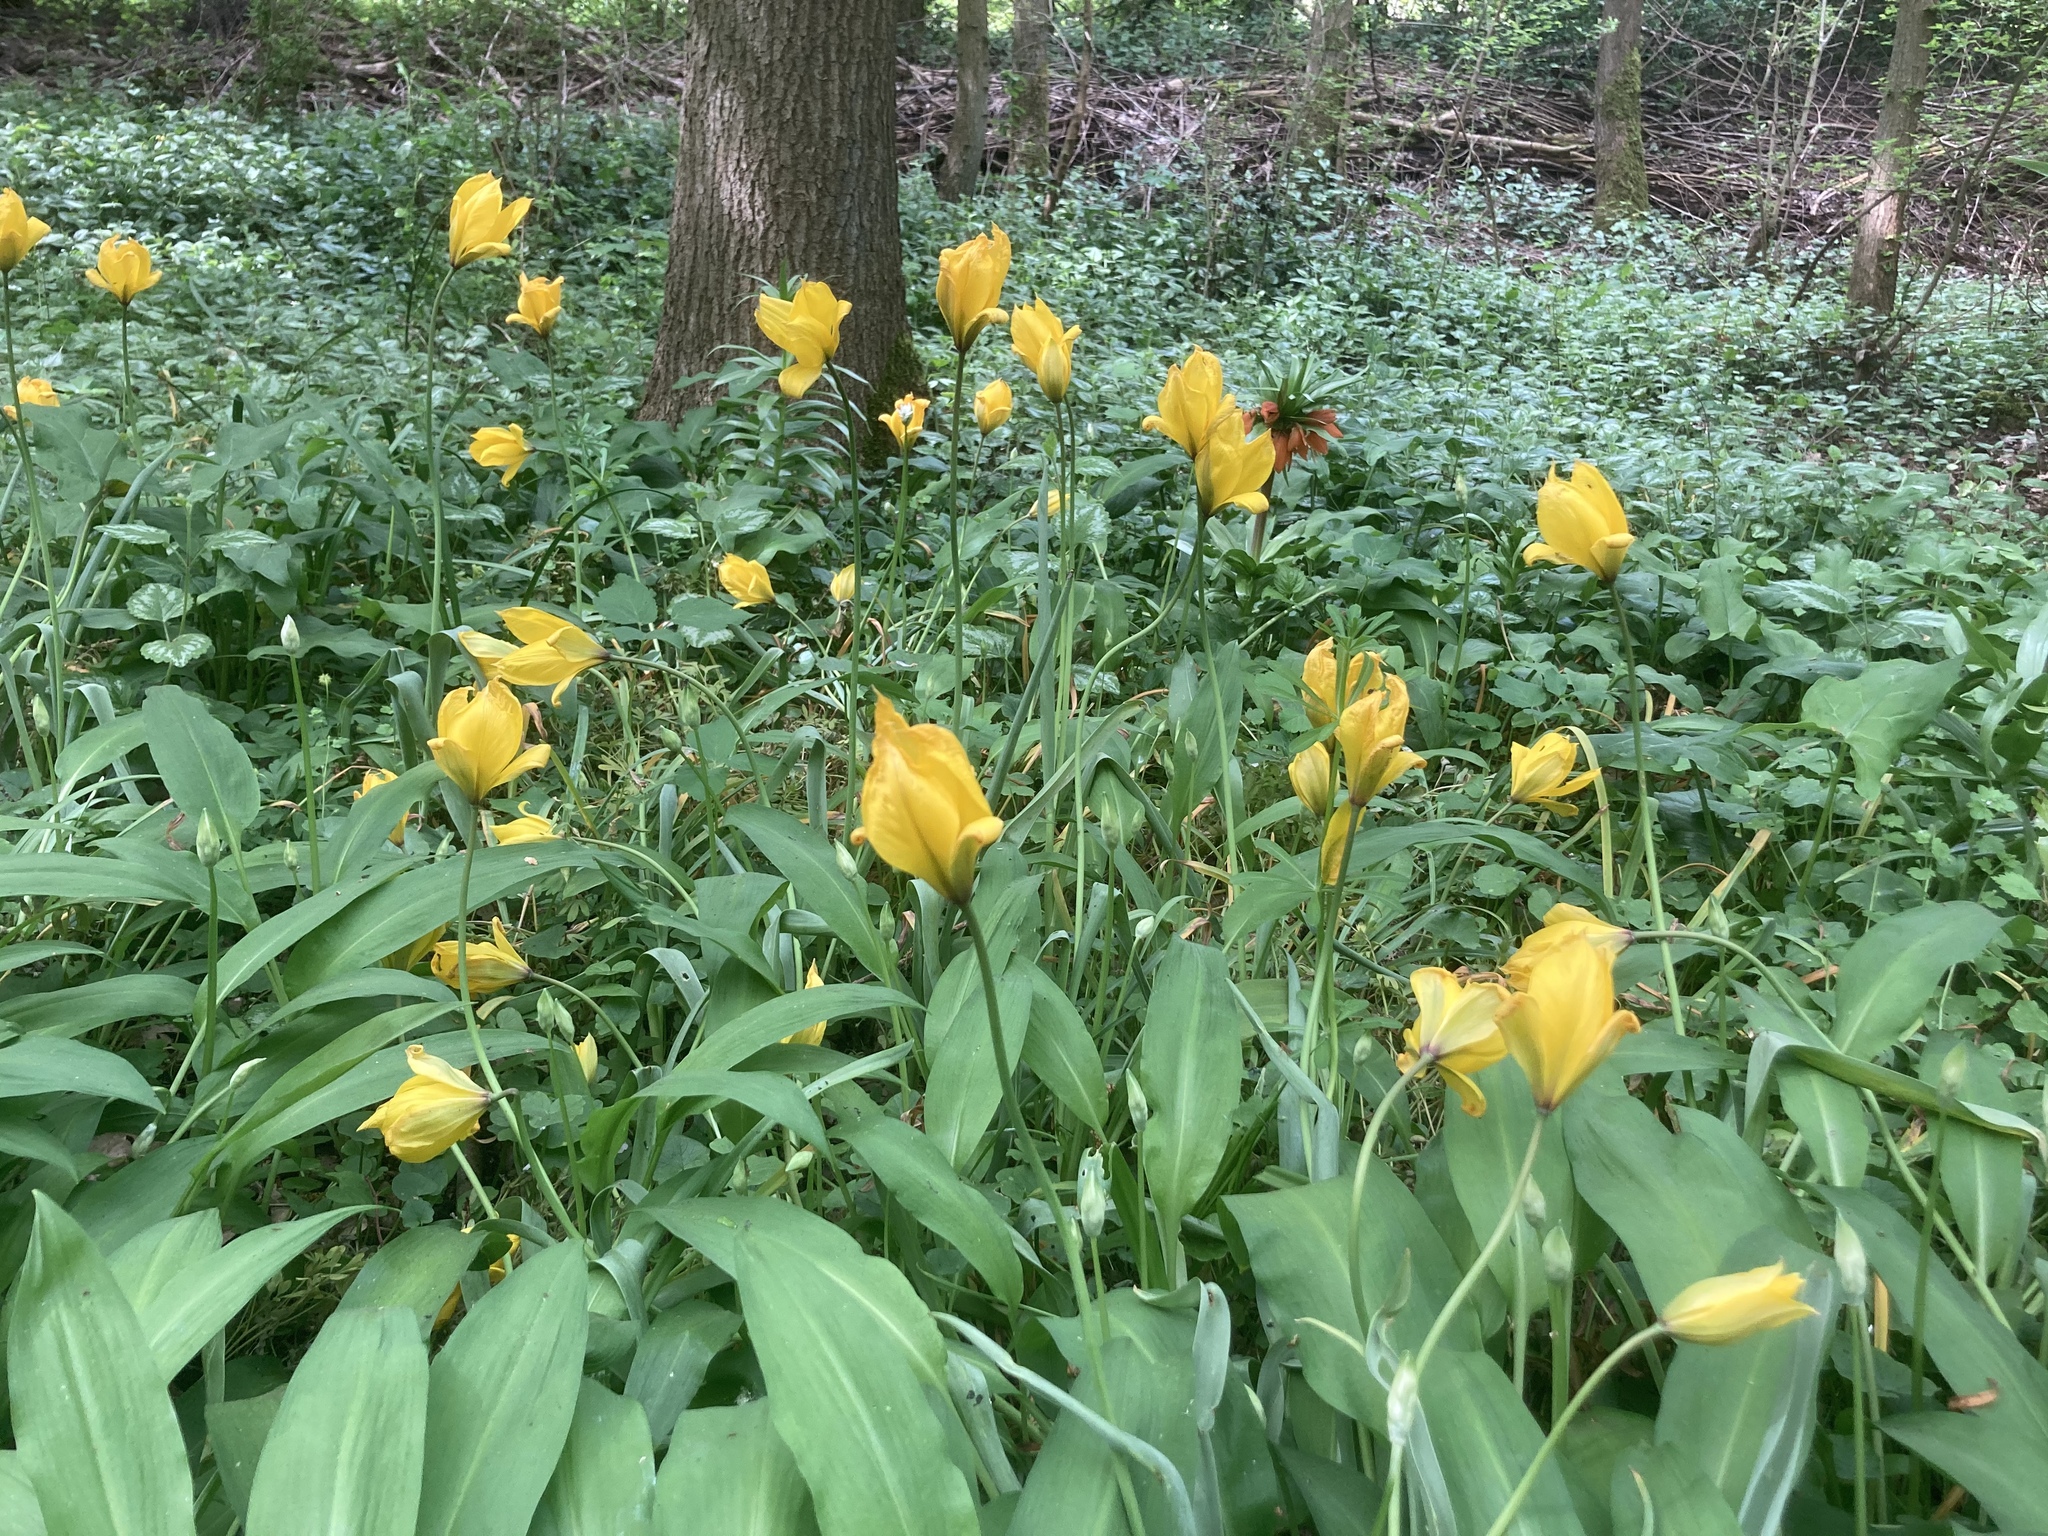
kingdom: Plantae
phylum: Tracheophyta
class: Liliopsida
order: Liliales
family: Liliaceae
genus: Tulipa
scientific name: Tulipa sylvestris
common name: Wild tulip
